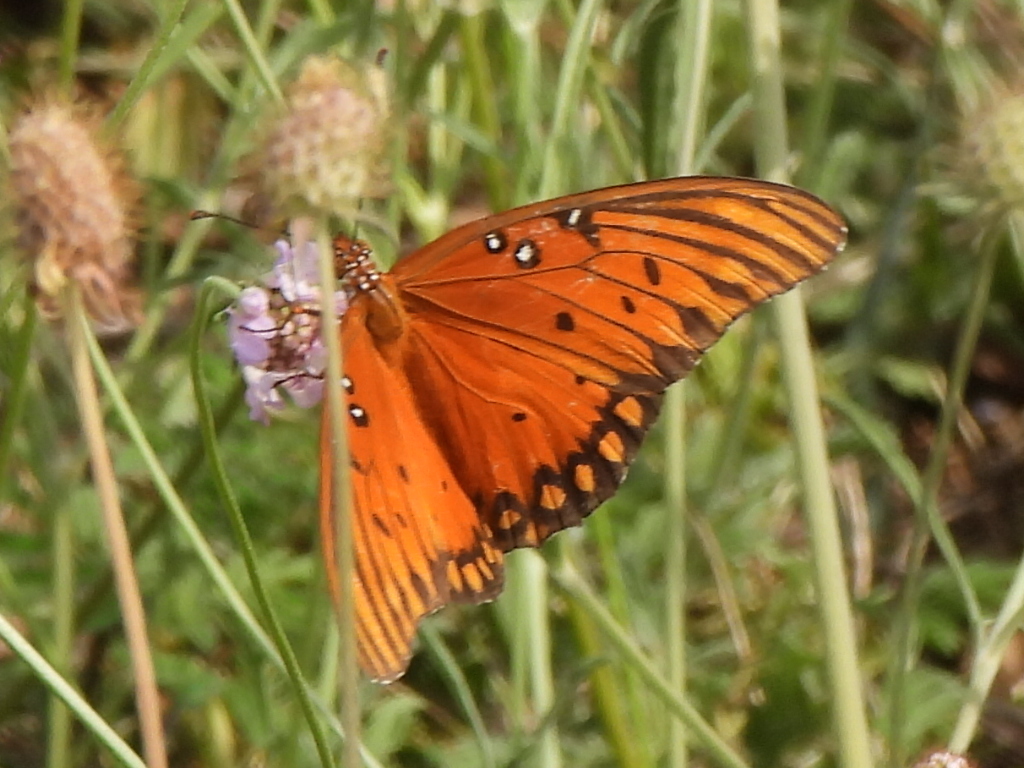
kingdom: Animalia
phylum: Arthropoda
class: Insecta
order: Lepidoptera
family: Nymphalidae
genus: Dione
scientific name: Dione vanillae
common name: Gulf fritillary
